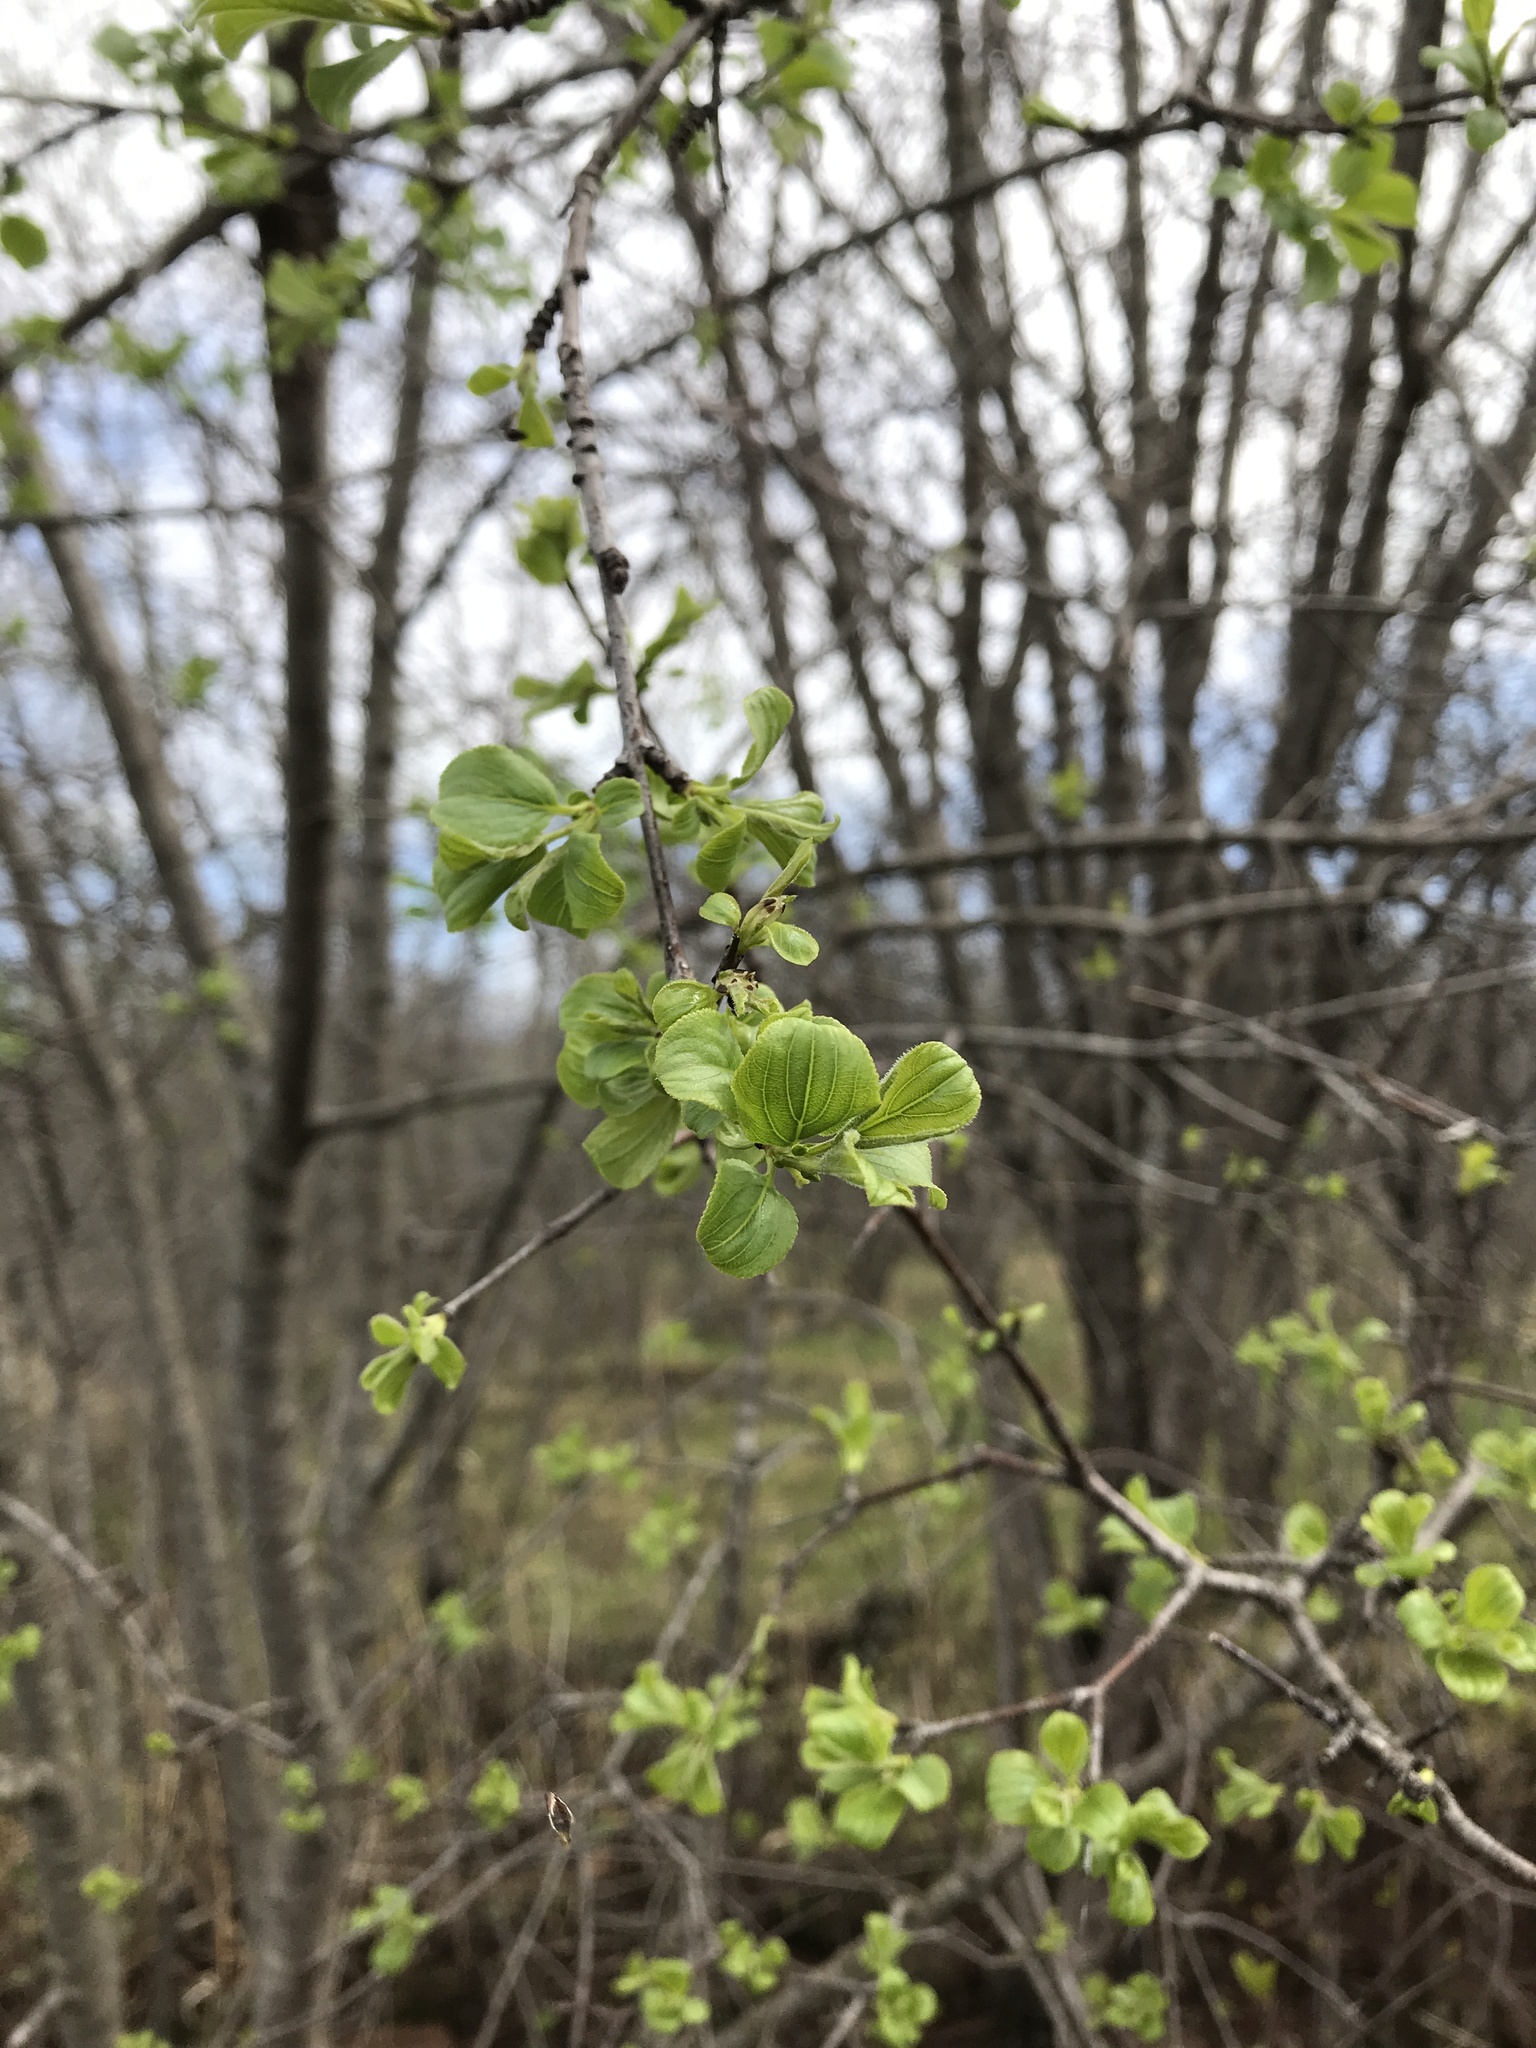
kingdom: Plantae
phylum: Tracheophyta
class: Magnoliopsida
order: Rosales
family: Rhamnaceae
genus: Rhamnus
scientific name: Rhamnus cathartica
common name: Common buckthorn
